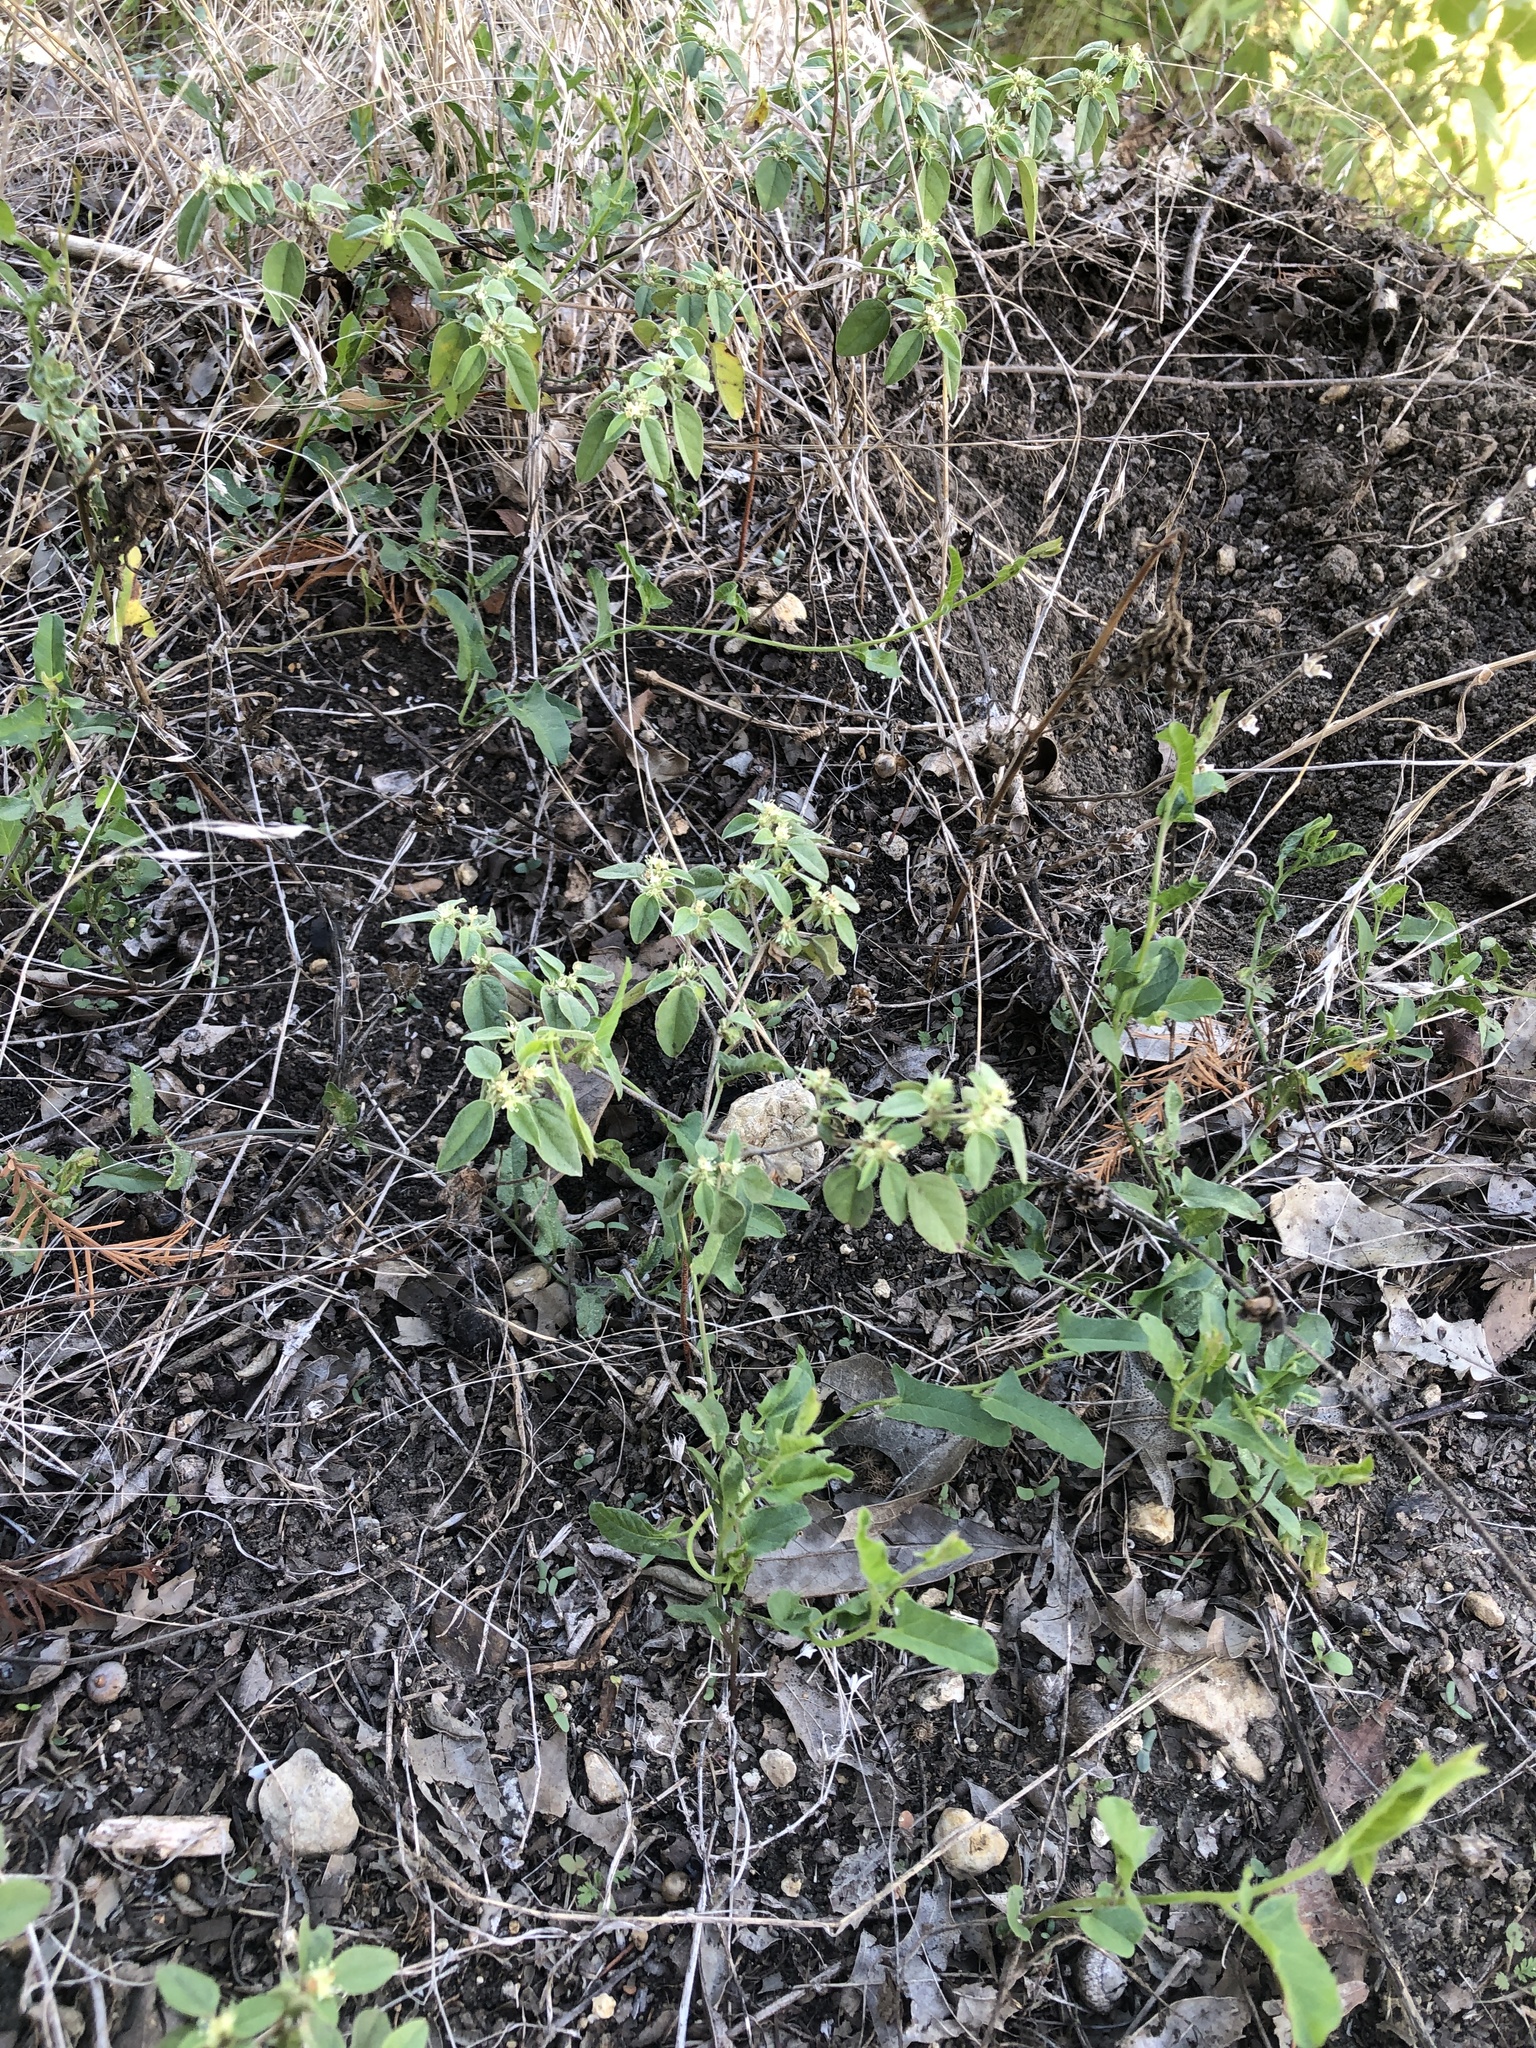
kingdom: Plantae
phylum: Tracheophyta
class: Magnoliopsida
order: Malpighiales
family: Euphorbiaceae
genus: Croton
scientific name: Croton monanthogynus
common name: One-seed croton
